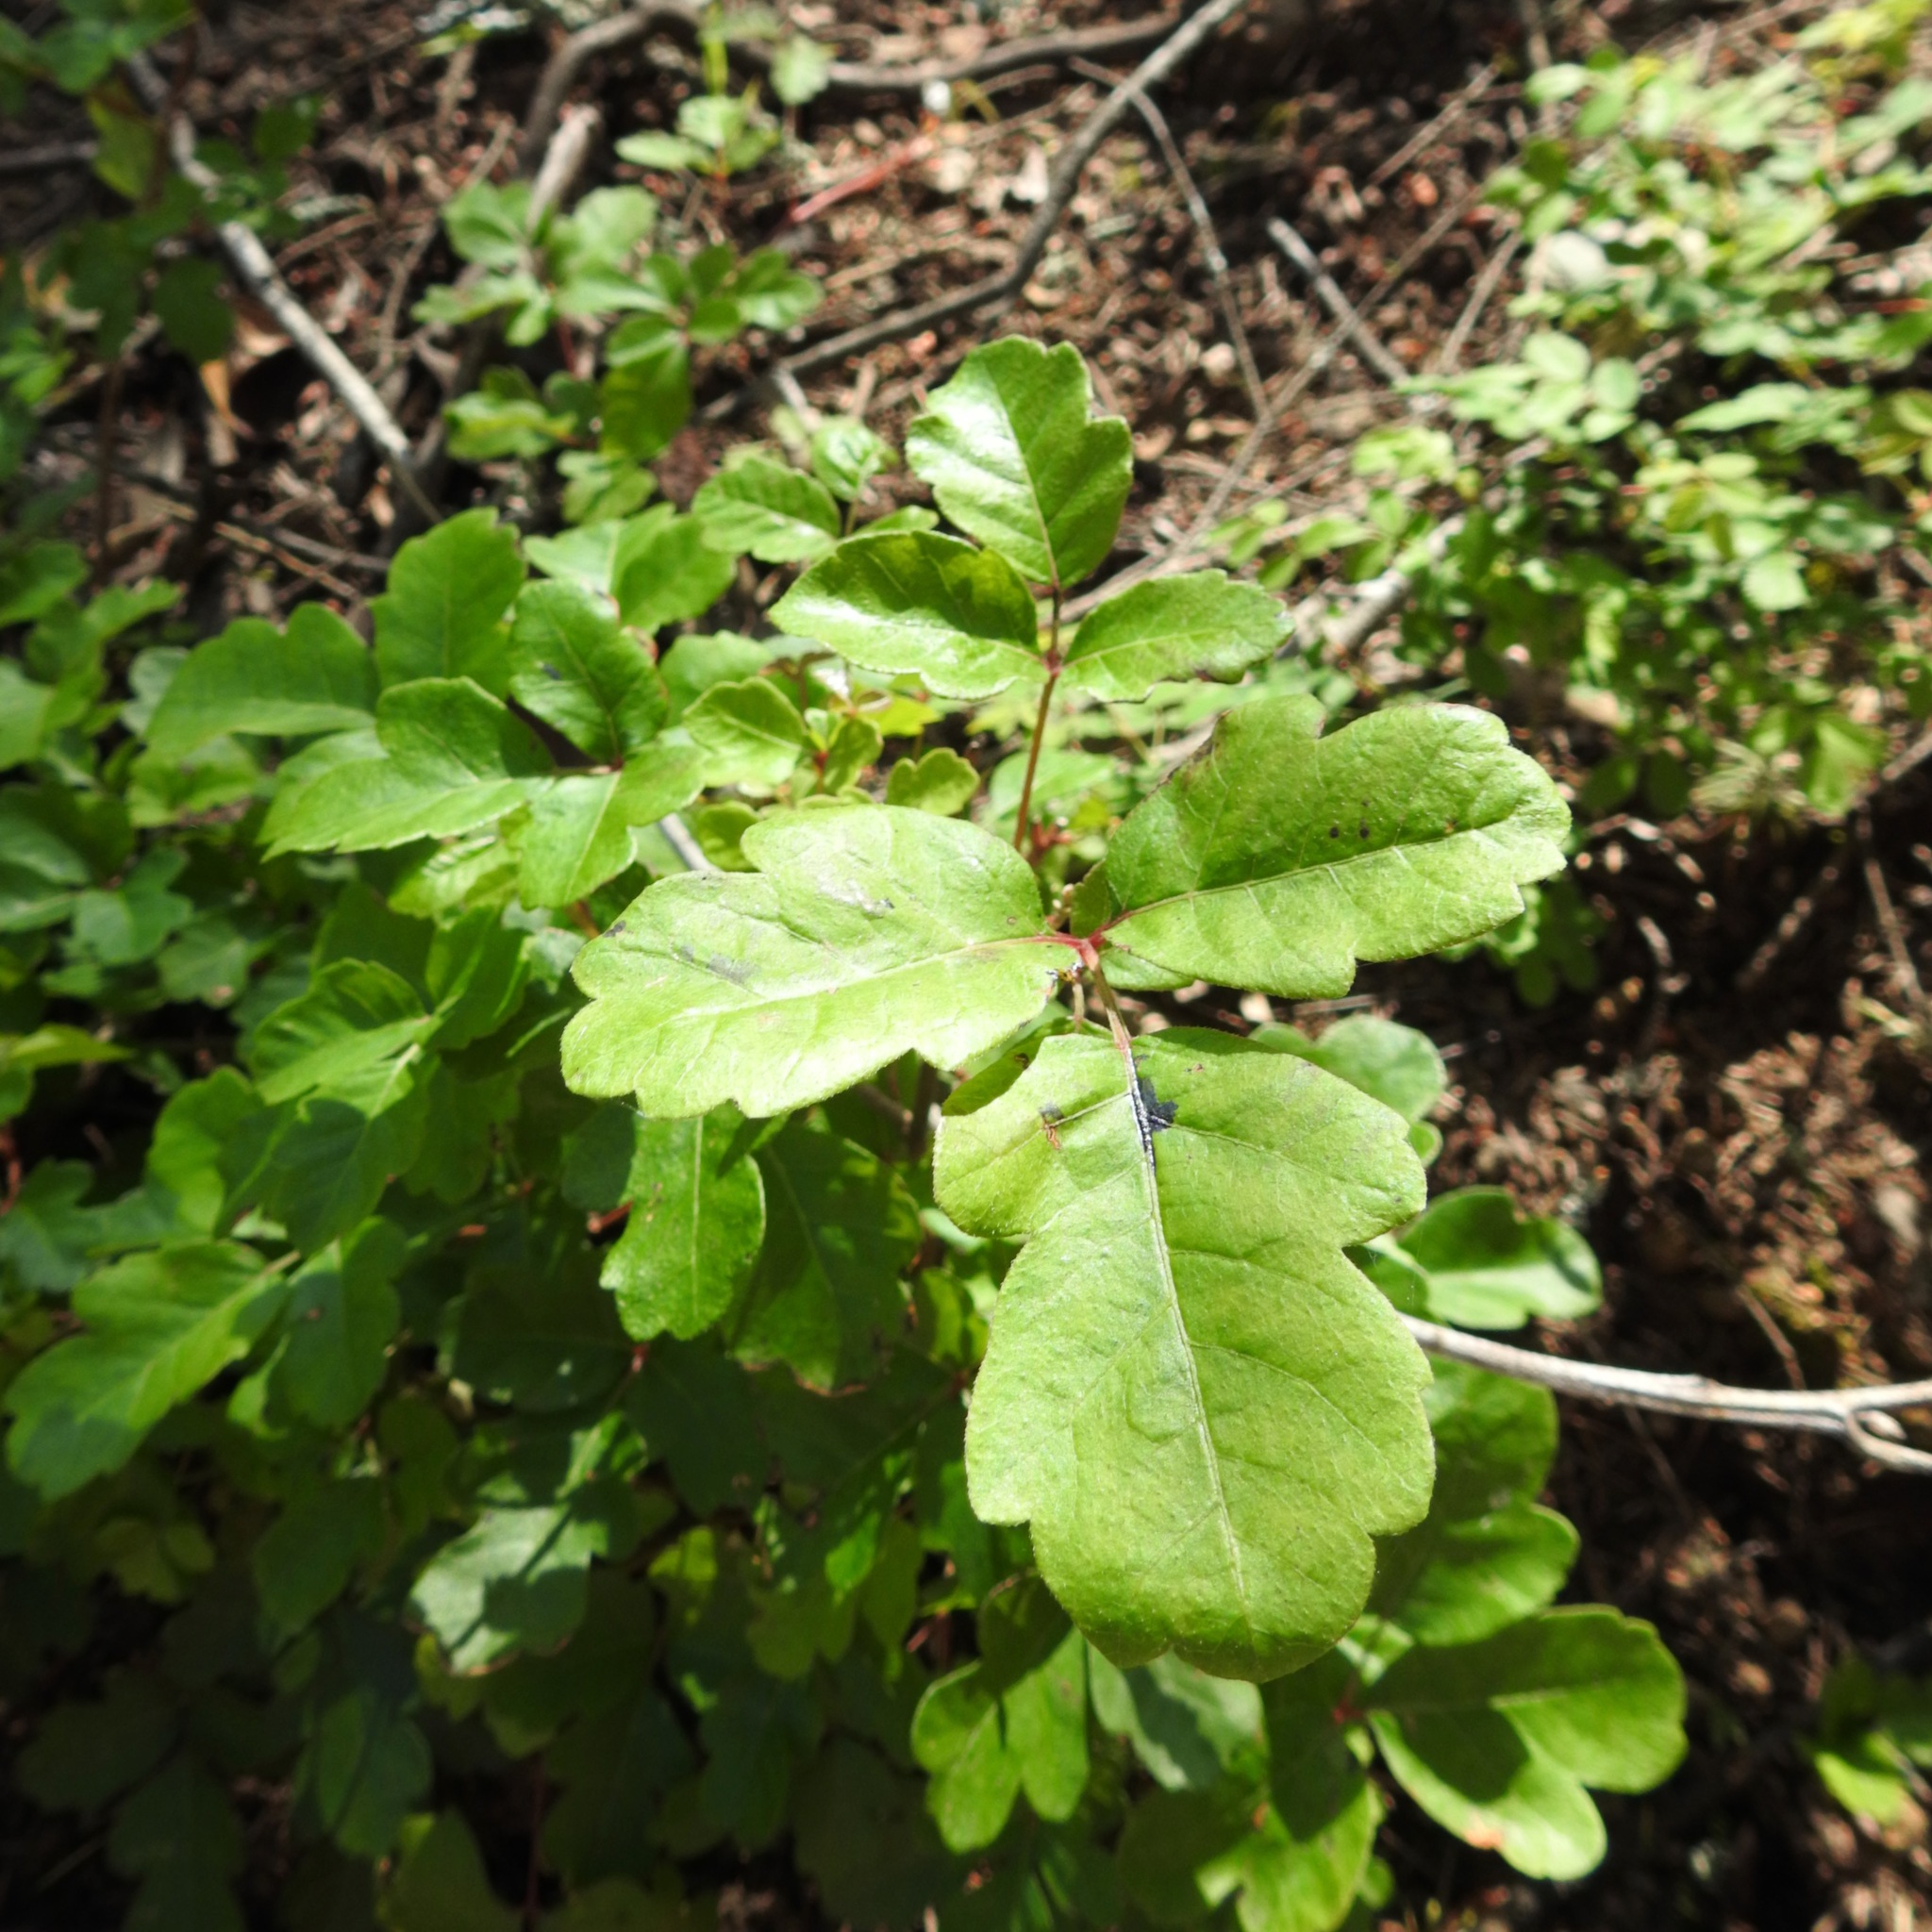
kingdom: Plantae
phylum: Tracheophyta
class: Magnoliopsida
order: Sapindales
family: Anacardiaceae
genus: Toxicodendron
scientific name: Toxicodendron diversilobum
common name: Pacific poison-oak
